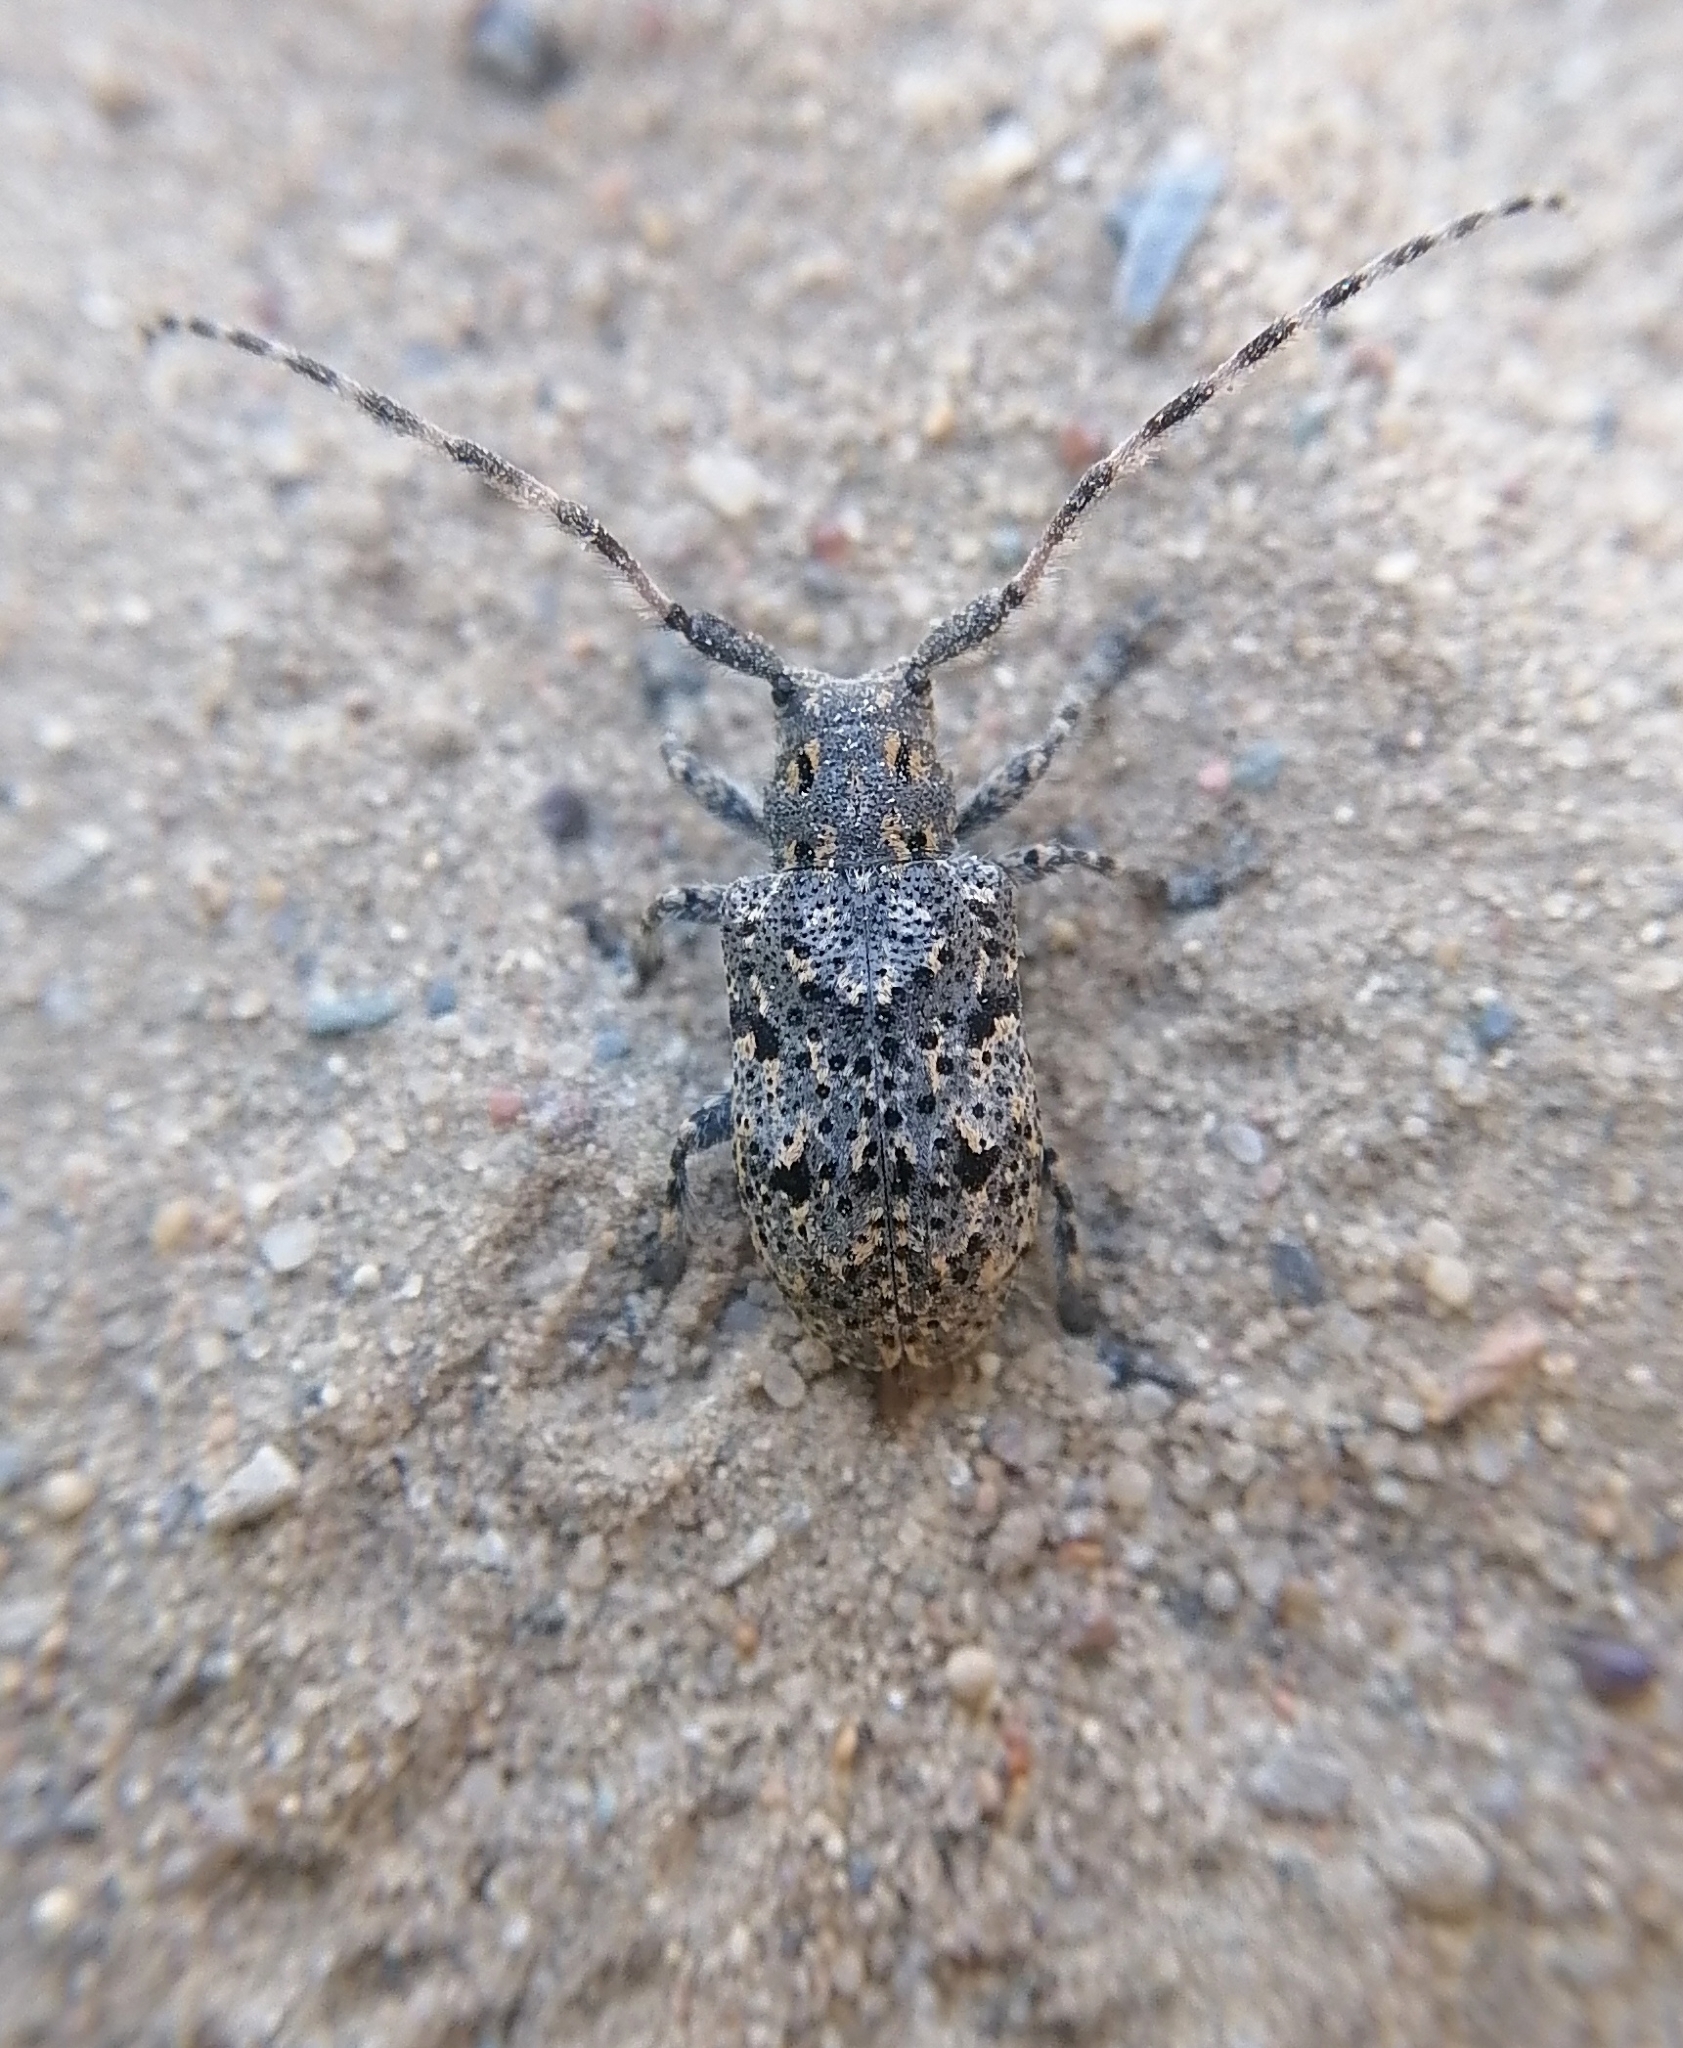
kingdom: Animalia
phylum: Arthropoda
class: Insecta
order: Coleoptera
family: Cerambycidae
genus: Mesosa
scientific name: Mesosa myops
